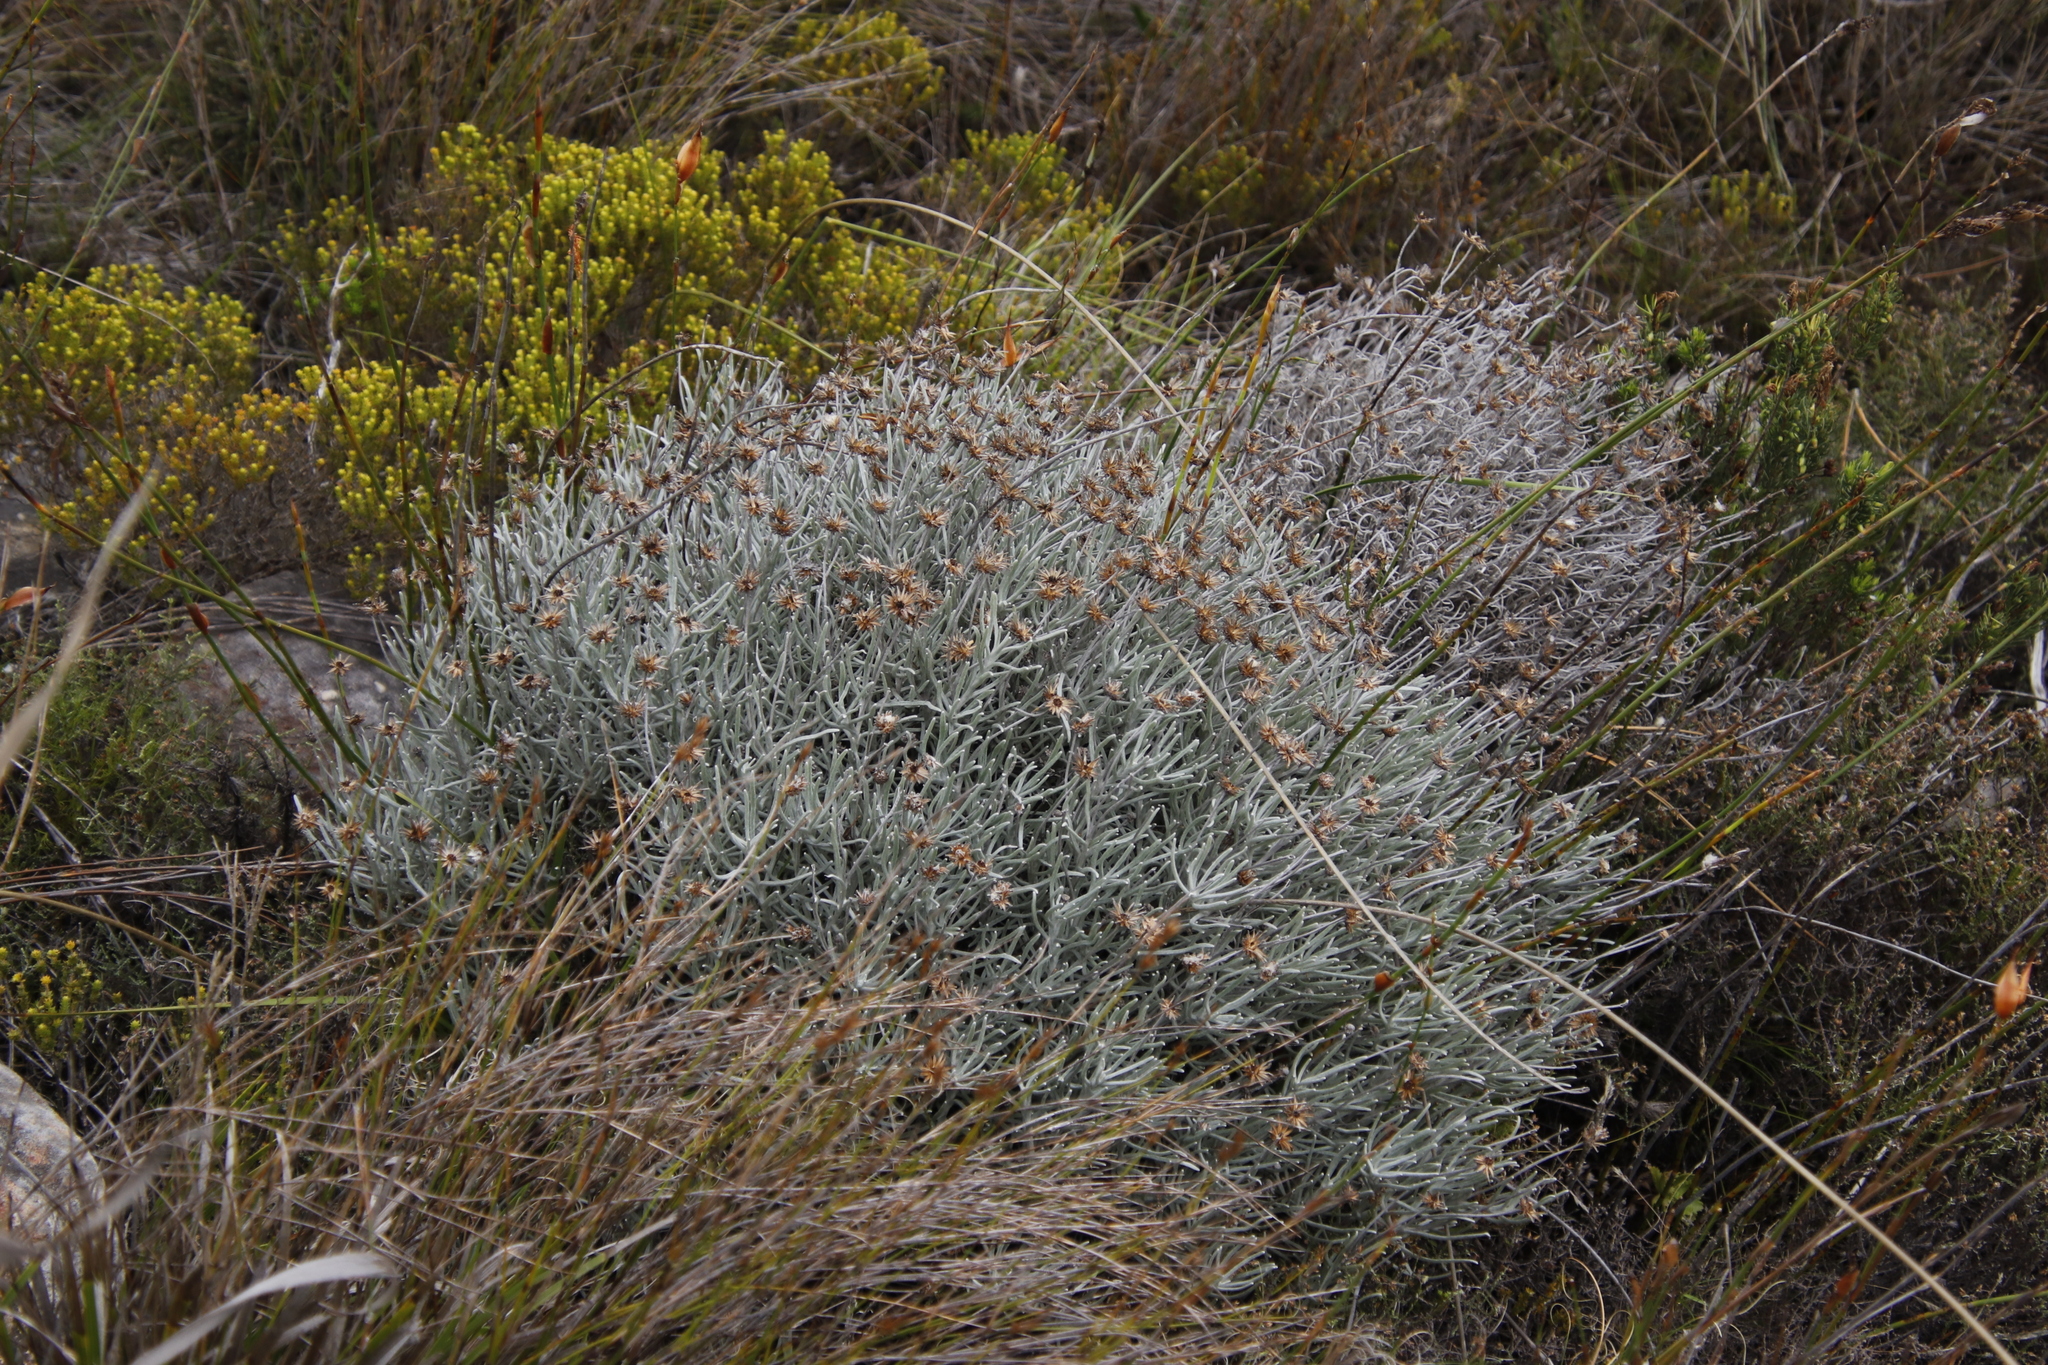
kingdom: Plantae
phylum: Tracheophyta
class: Magnoliopsida
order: Asterales
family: Asteraceae
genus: Syncarpha
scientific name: Syncarpha gnaphaloides
